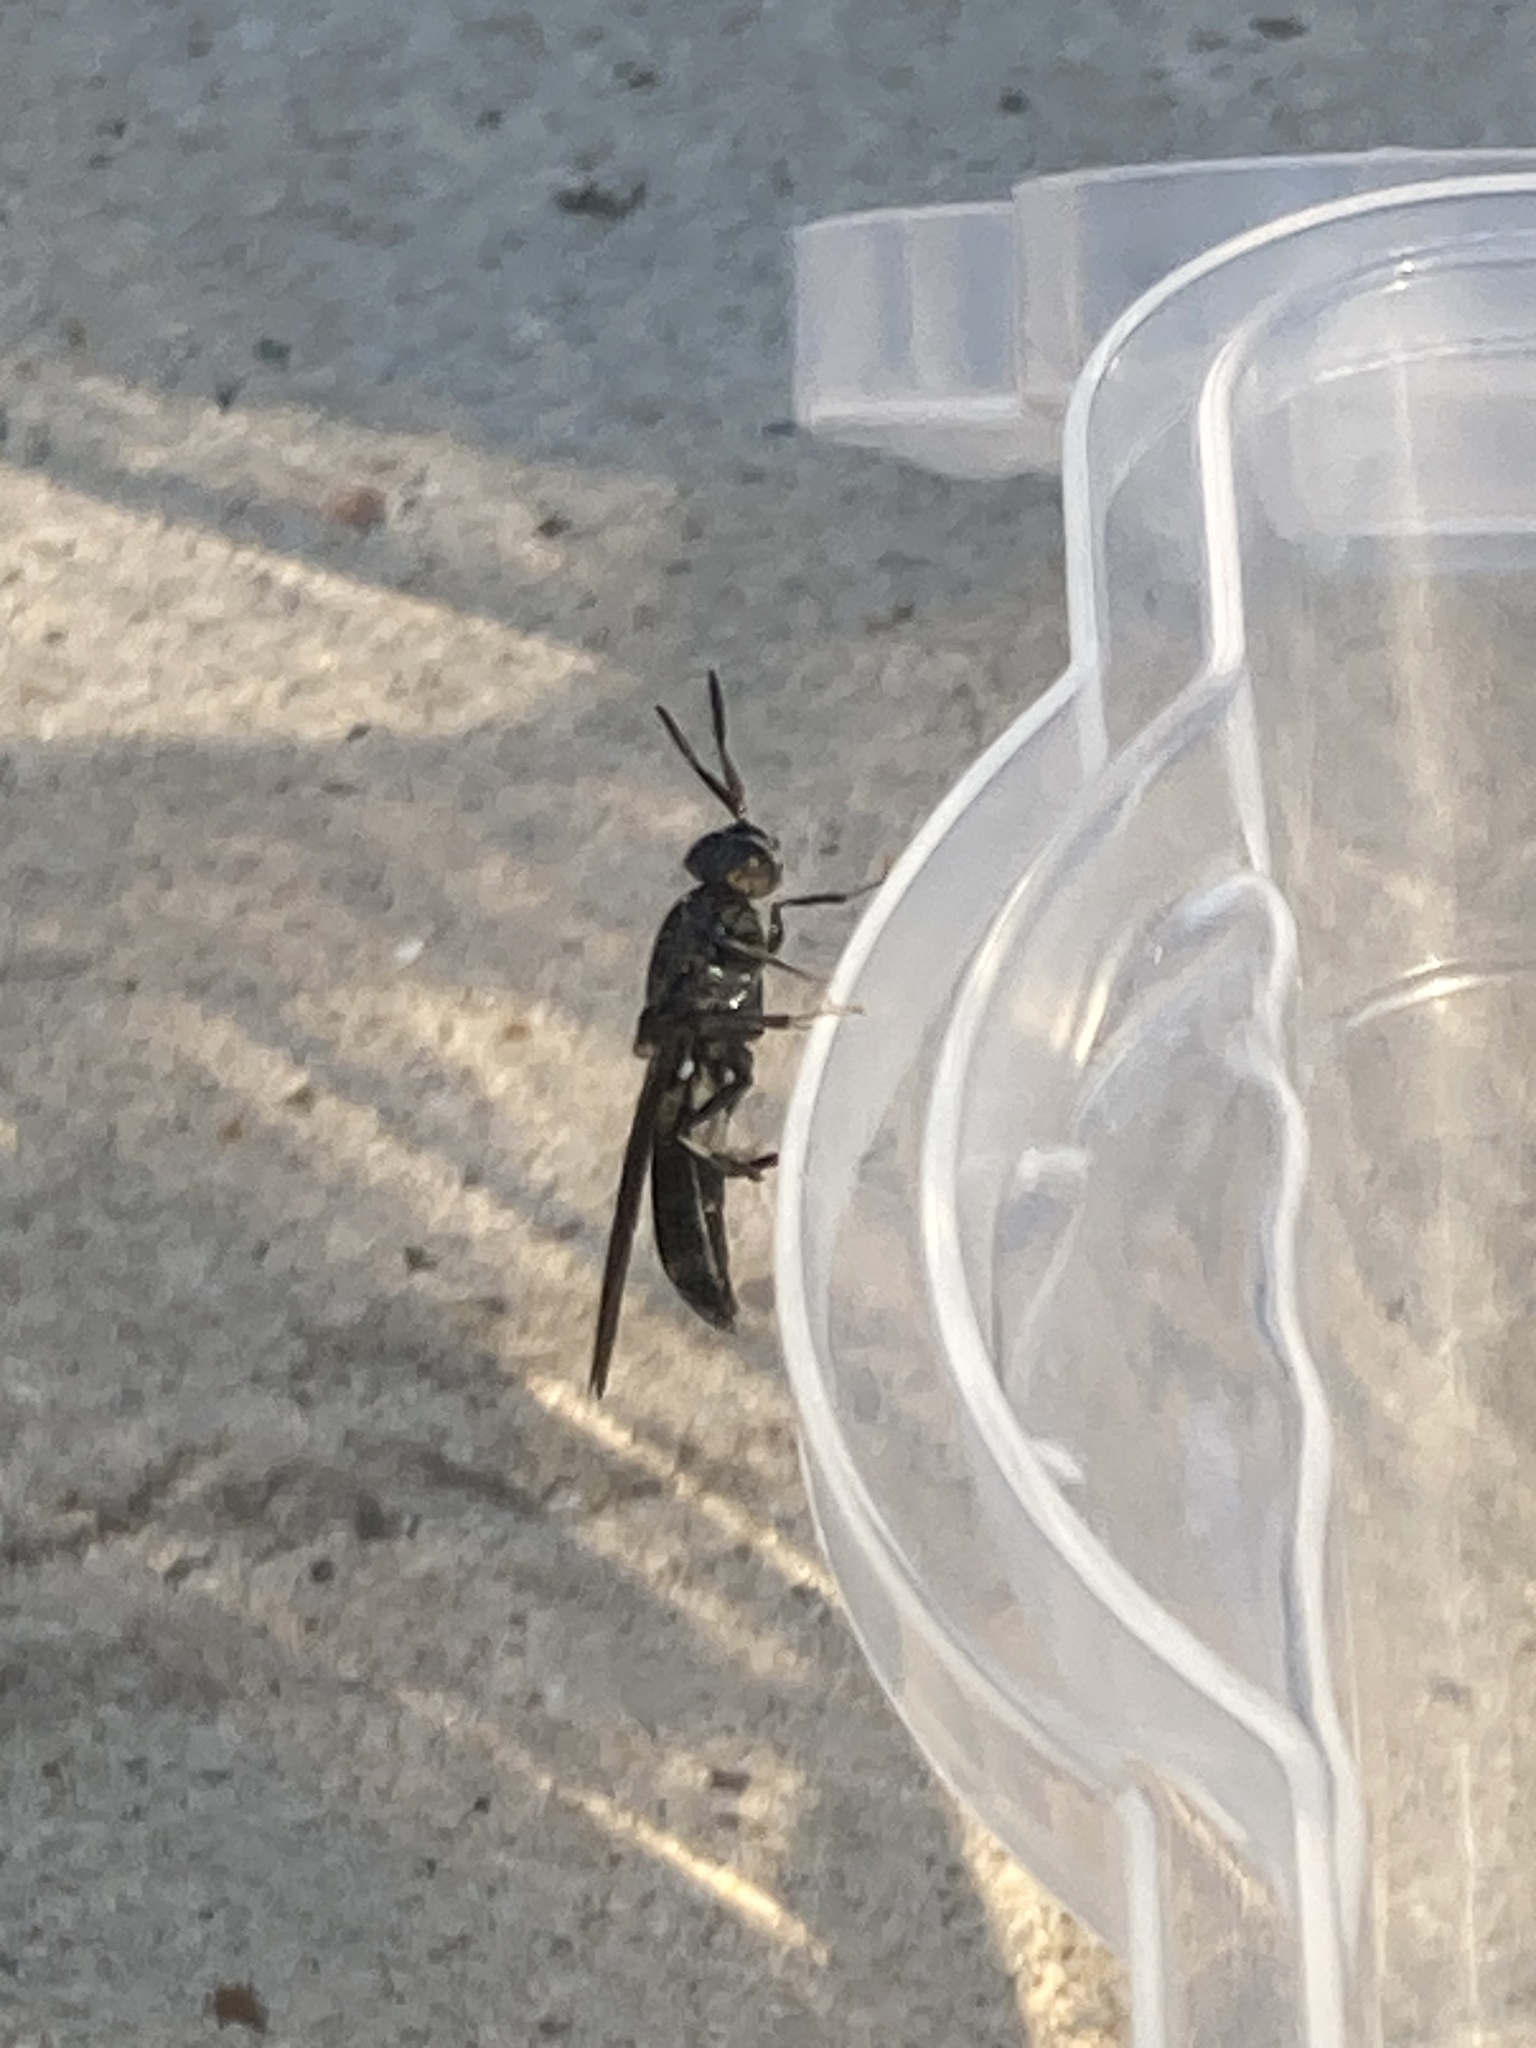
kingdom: Animalia
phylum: Arthropoda
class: Insecta
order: Diptera
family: Stratiomyidae
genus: Hermetia
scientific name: Hermetia illucens
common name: Black soldier fly
